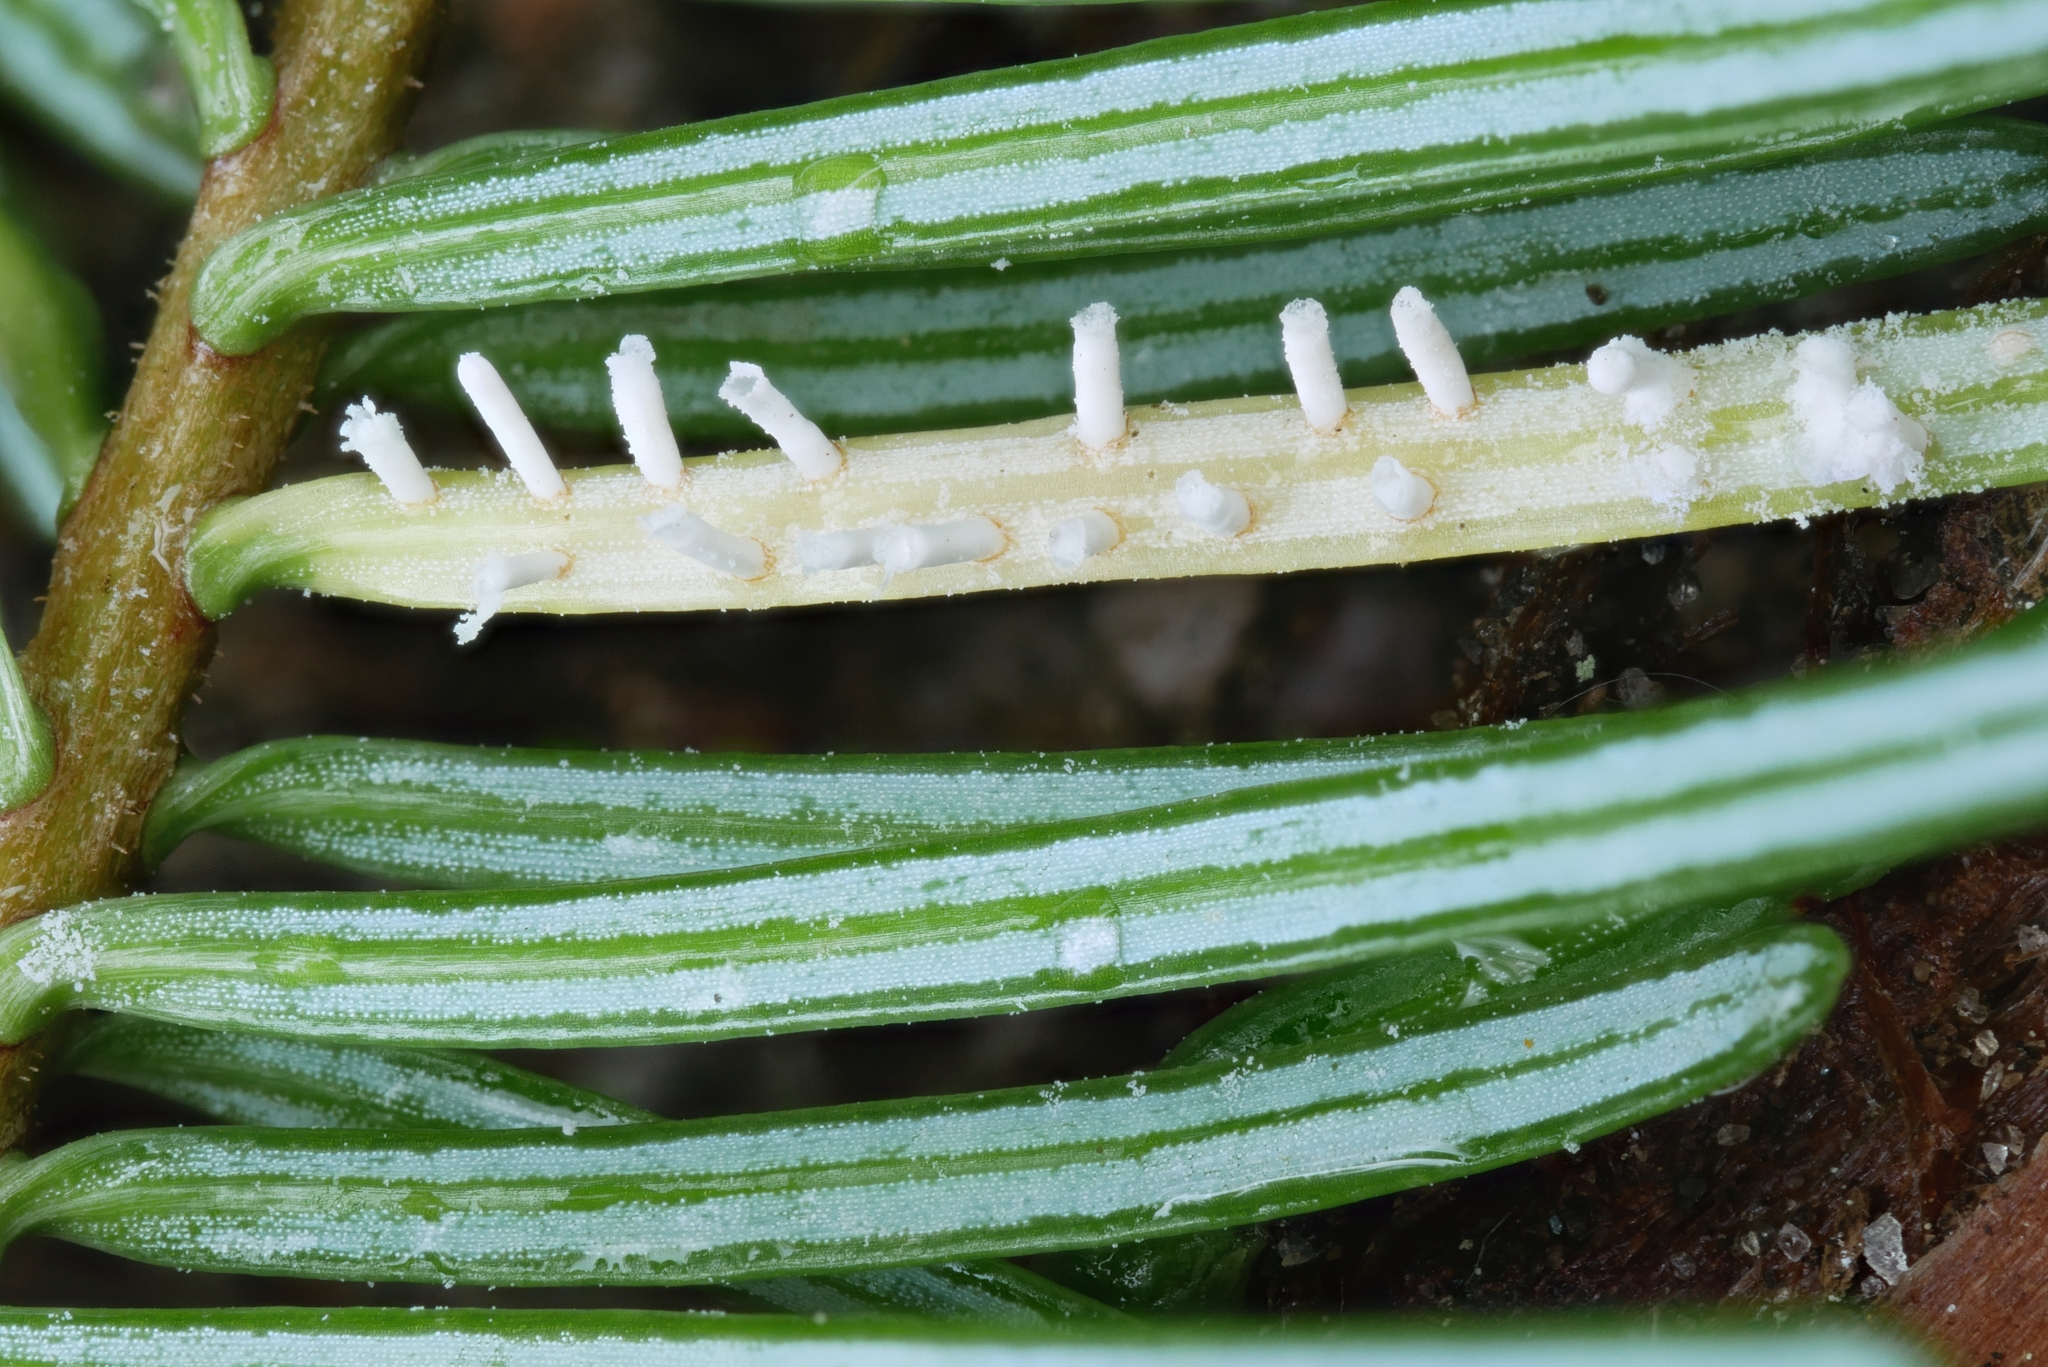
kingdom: Fungi
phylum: Basidiomycota
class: Pucciniomycetes
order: Pucciniales
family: Pucciniastraceae
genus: Calyptospora
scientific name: Calyptospora columnaris
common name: Huckleberry broom rust fungus
